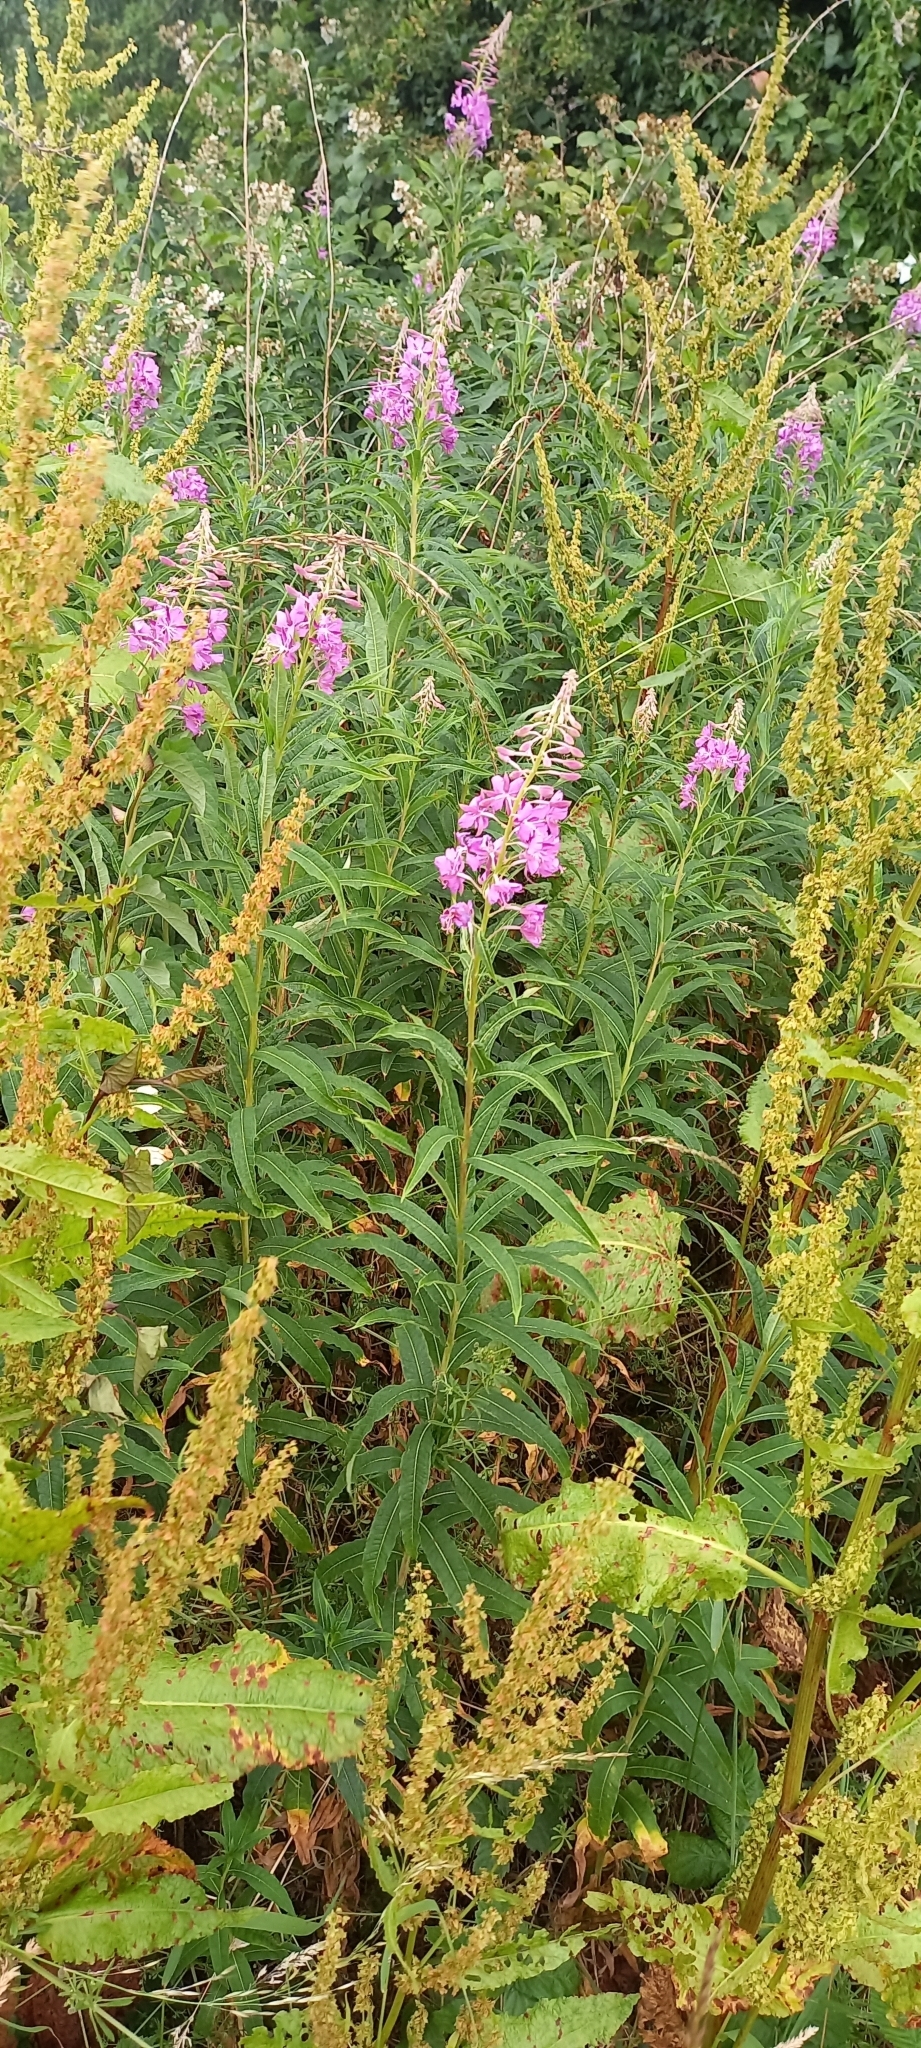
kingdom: Plantae
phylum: Tracheophyta
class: Magnoliopsida
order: Myrtales
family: Onagraceae
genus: Chamaenerion
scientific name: Chamaenerion angustifolium
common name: Fireweed
